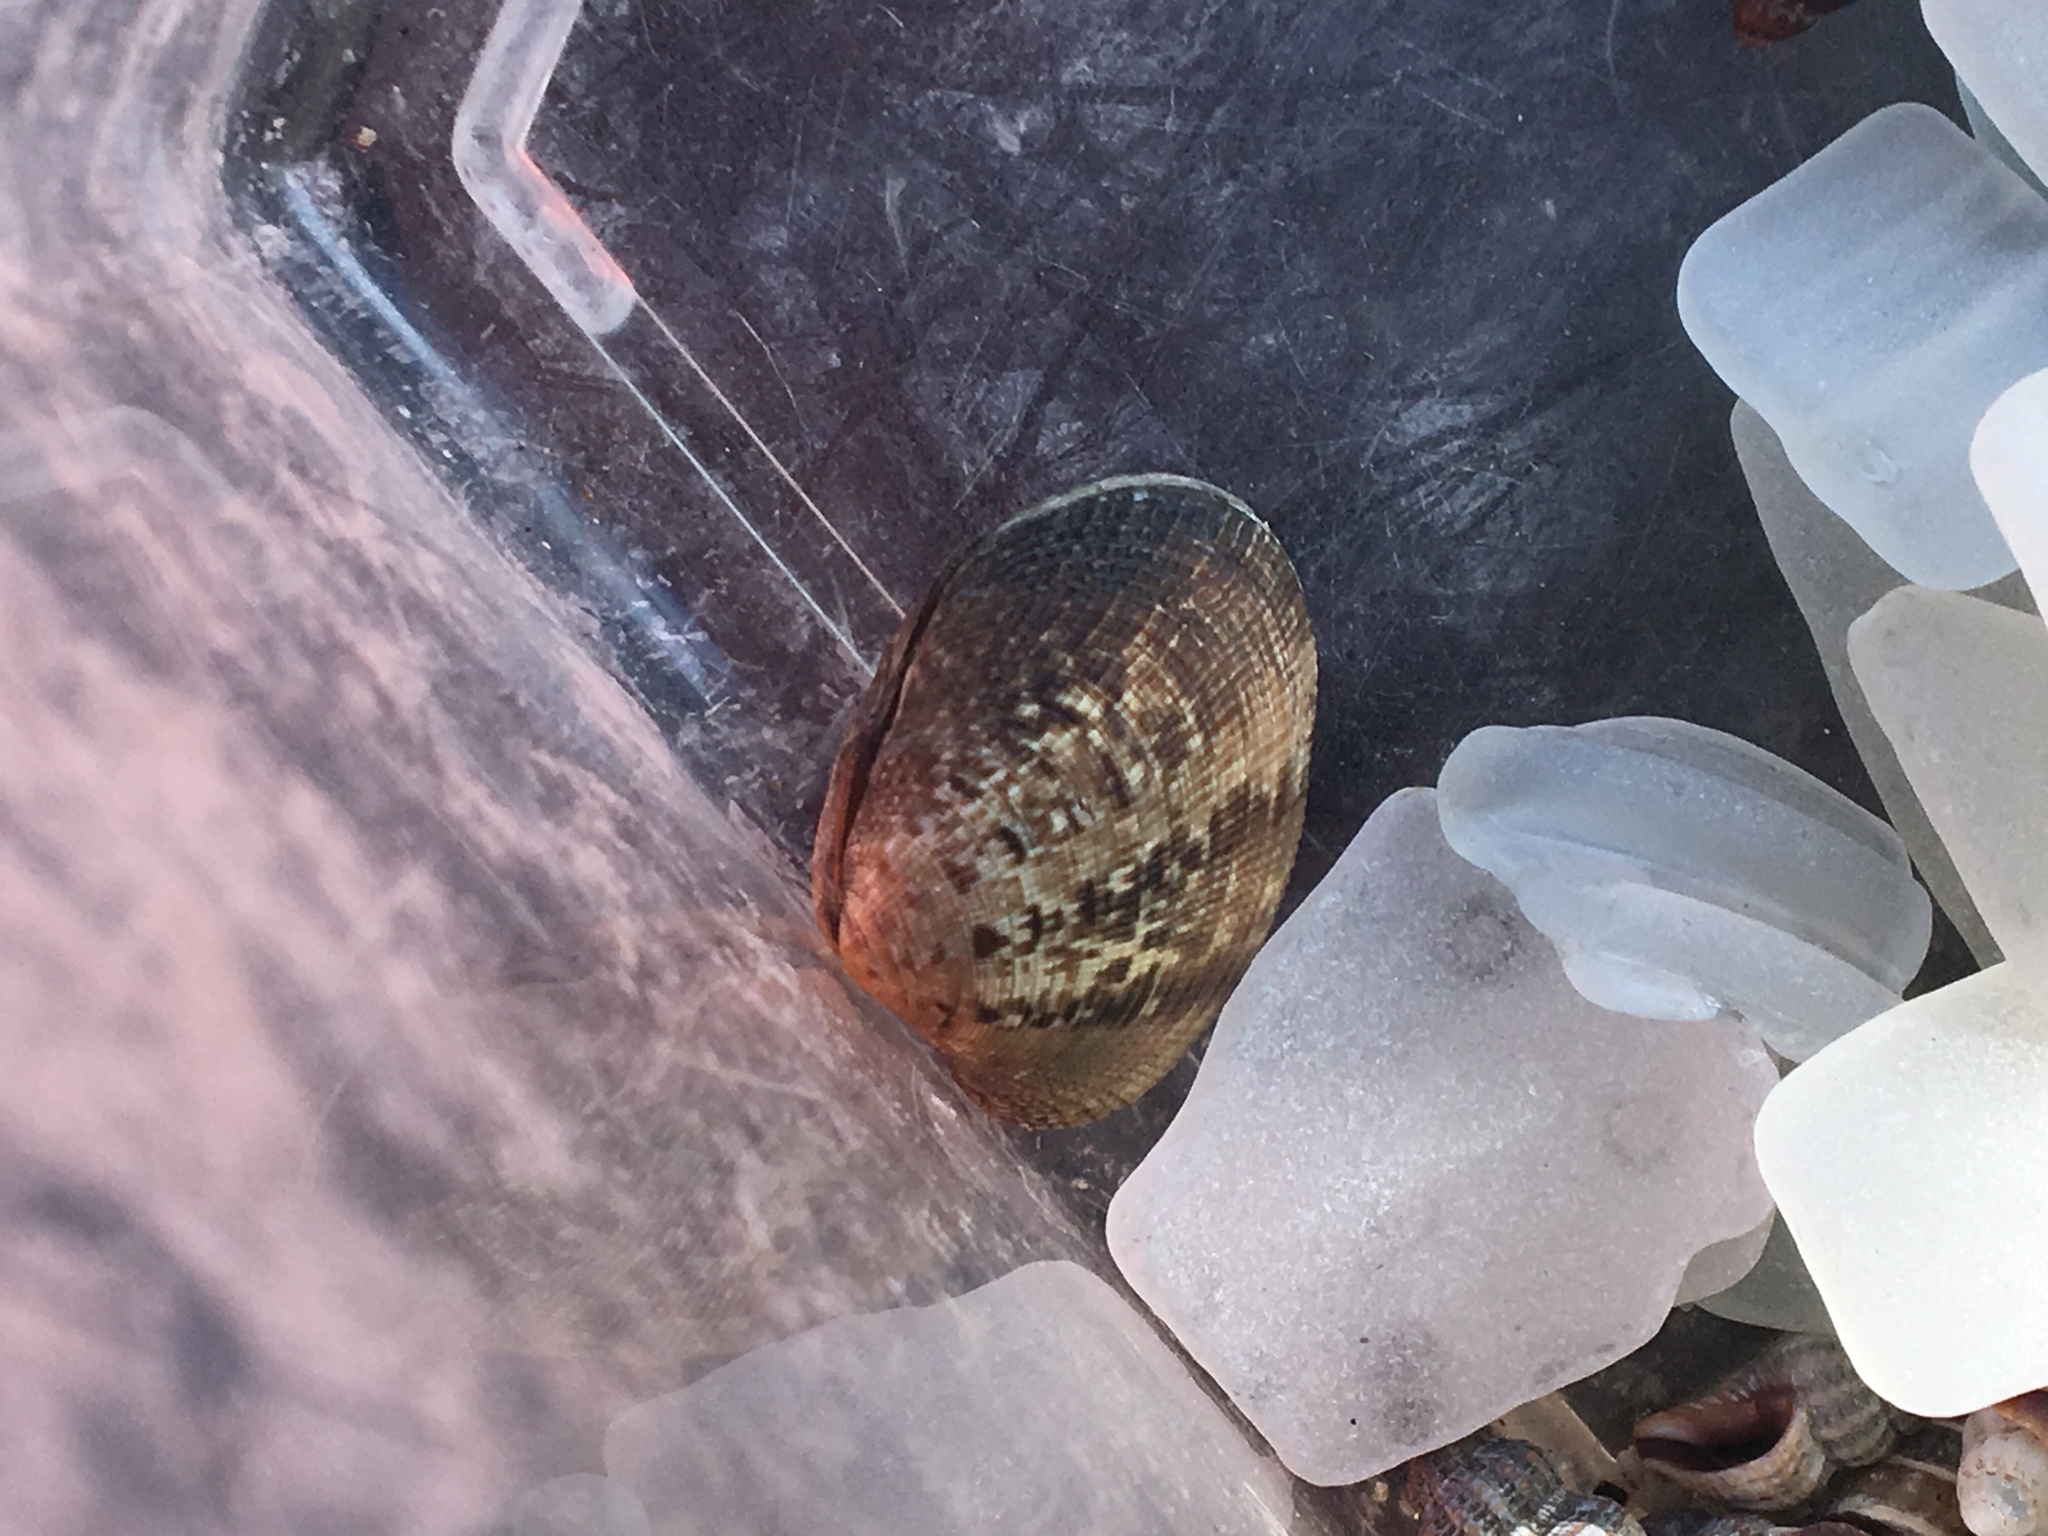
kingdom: Animalia
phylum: Mollusca
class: Bivalvia
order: Venerida
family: Veneridae
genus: Ruditapes
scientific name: Ruditapes philippinarum
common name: Manila clam
